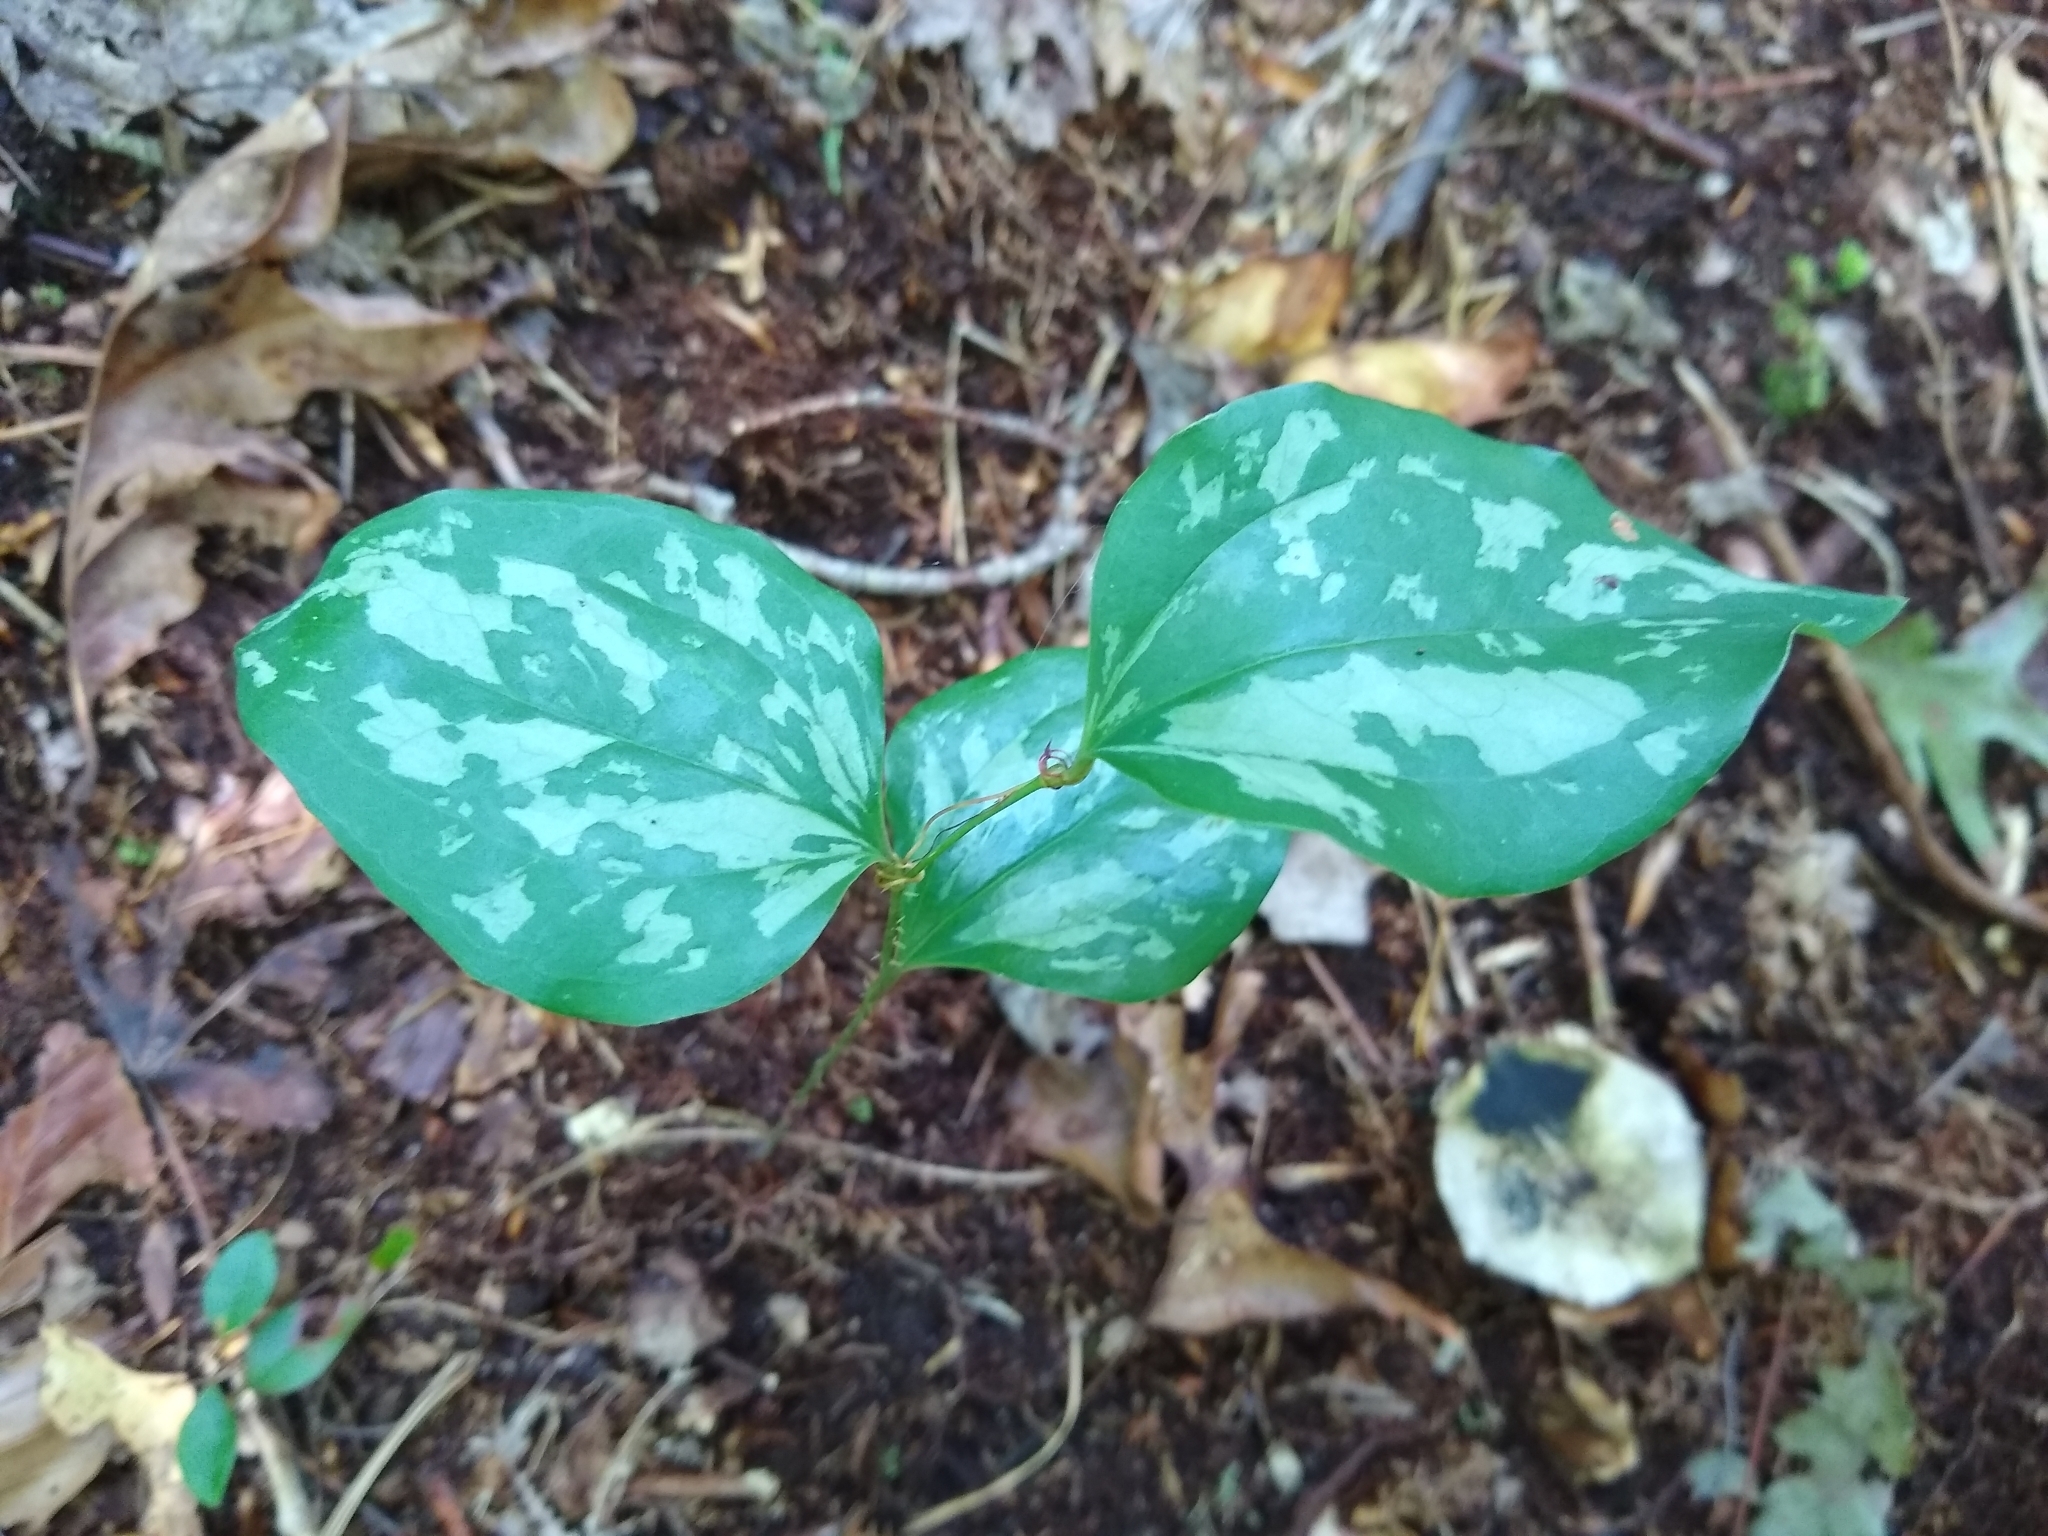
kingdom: Plantae
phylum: Tracheophyta
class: Liliopsida
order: Liliales
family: Smilacaceae
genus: Smilax
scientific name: Smilax glauca
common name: Cat greenbrier
